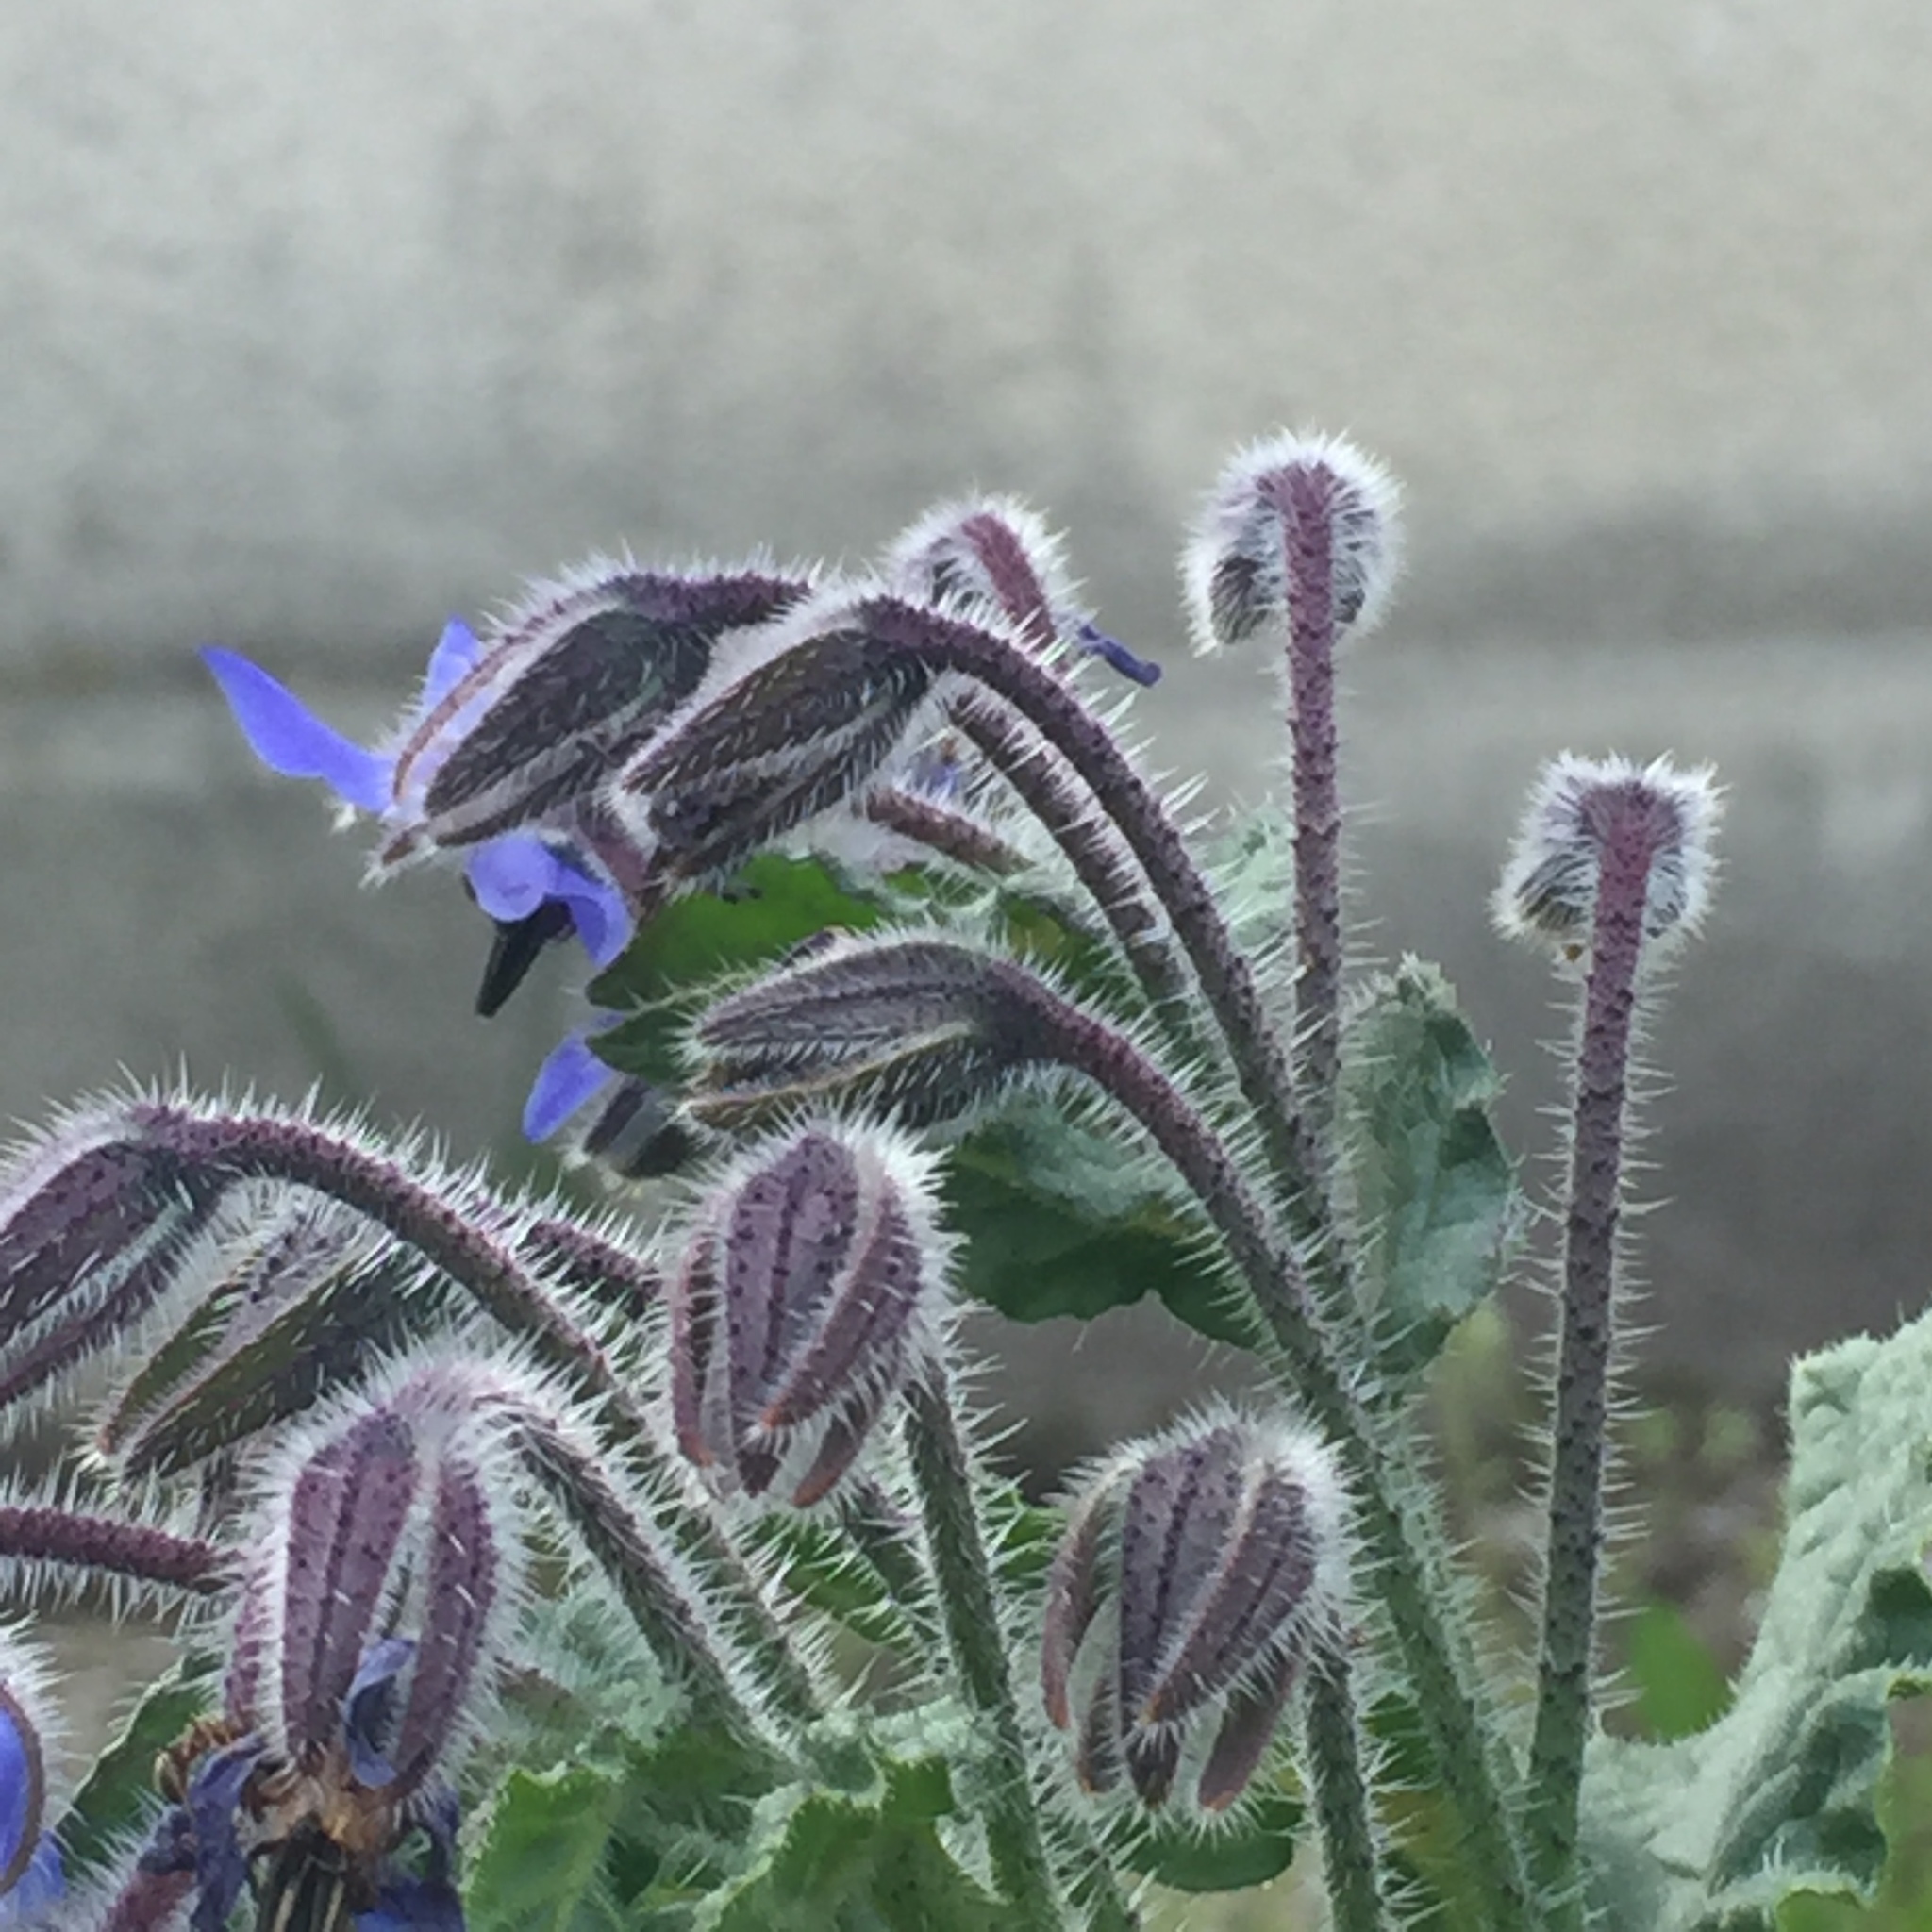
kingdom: Plantae
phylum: Tracheophyta
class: Magnoliopsida
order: Boraginales
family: Boraginaceae
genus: Borago
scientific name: Borago officinalis
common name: Borage
